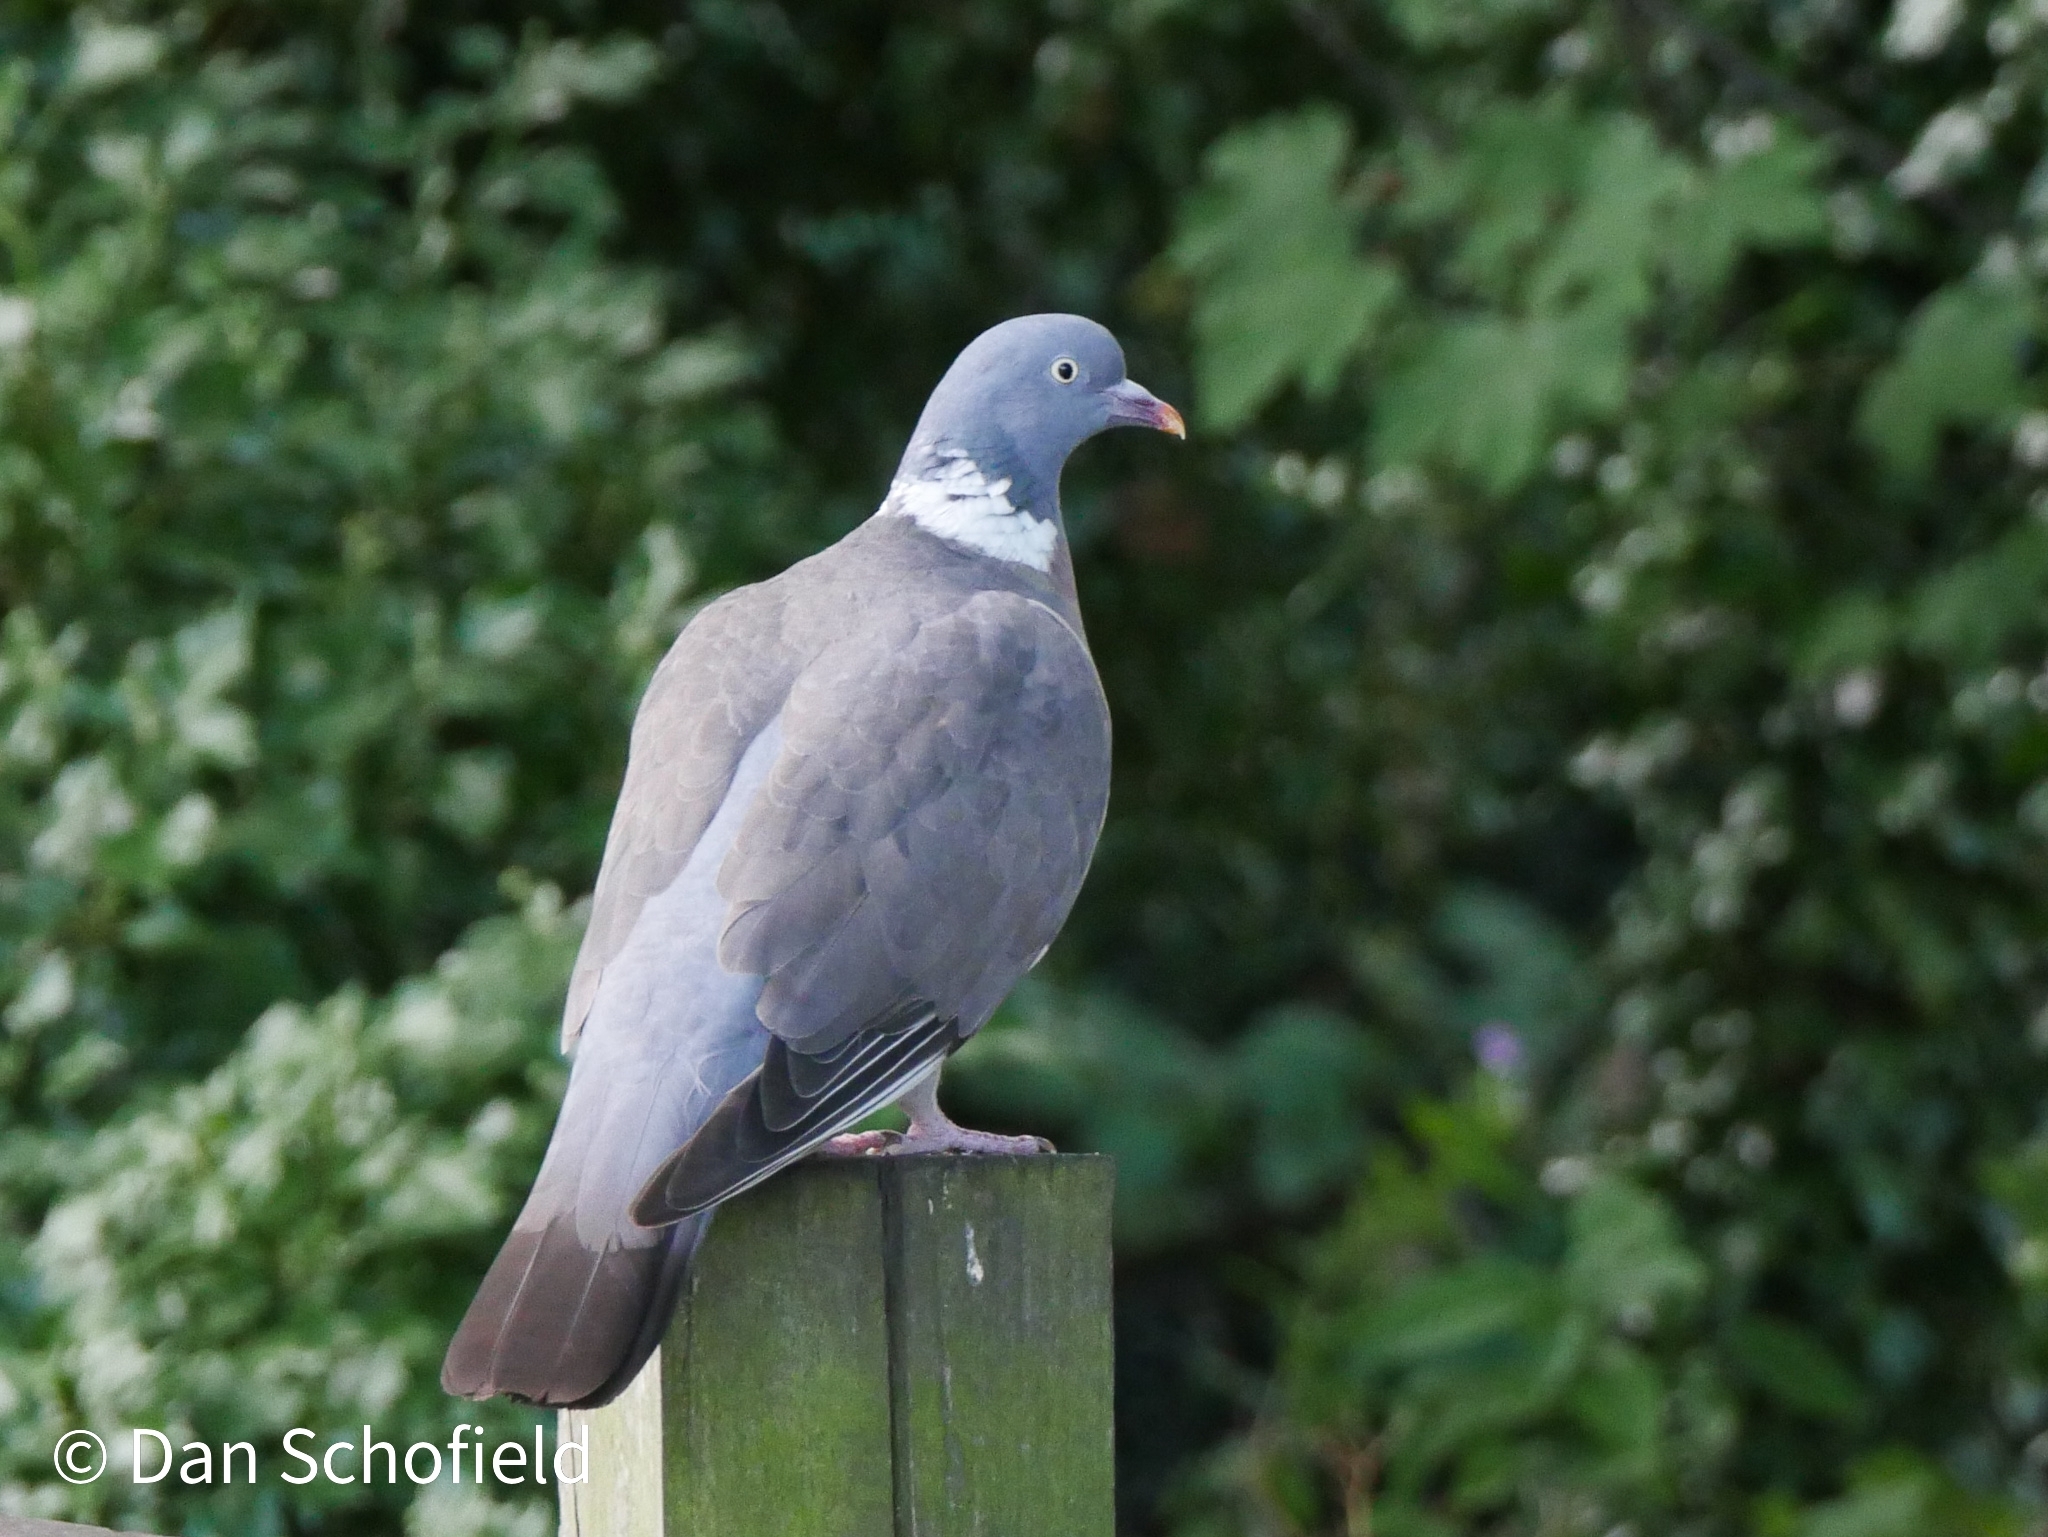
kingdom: Animalia
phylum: Chordata
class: Aves
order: Columbiformes
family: Columbidae
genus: Columba
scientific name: Columba palumbus
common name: Common wood pigeon
